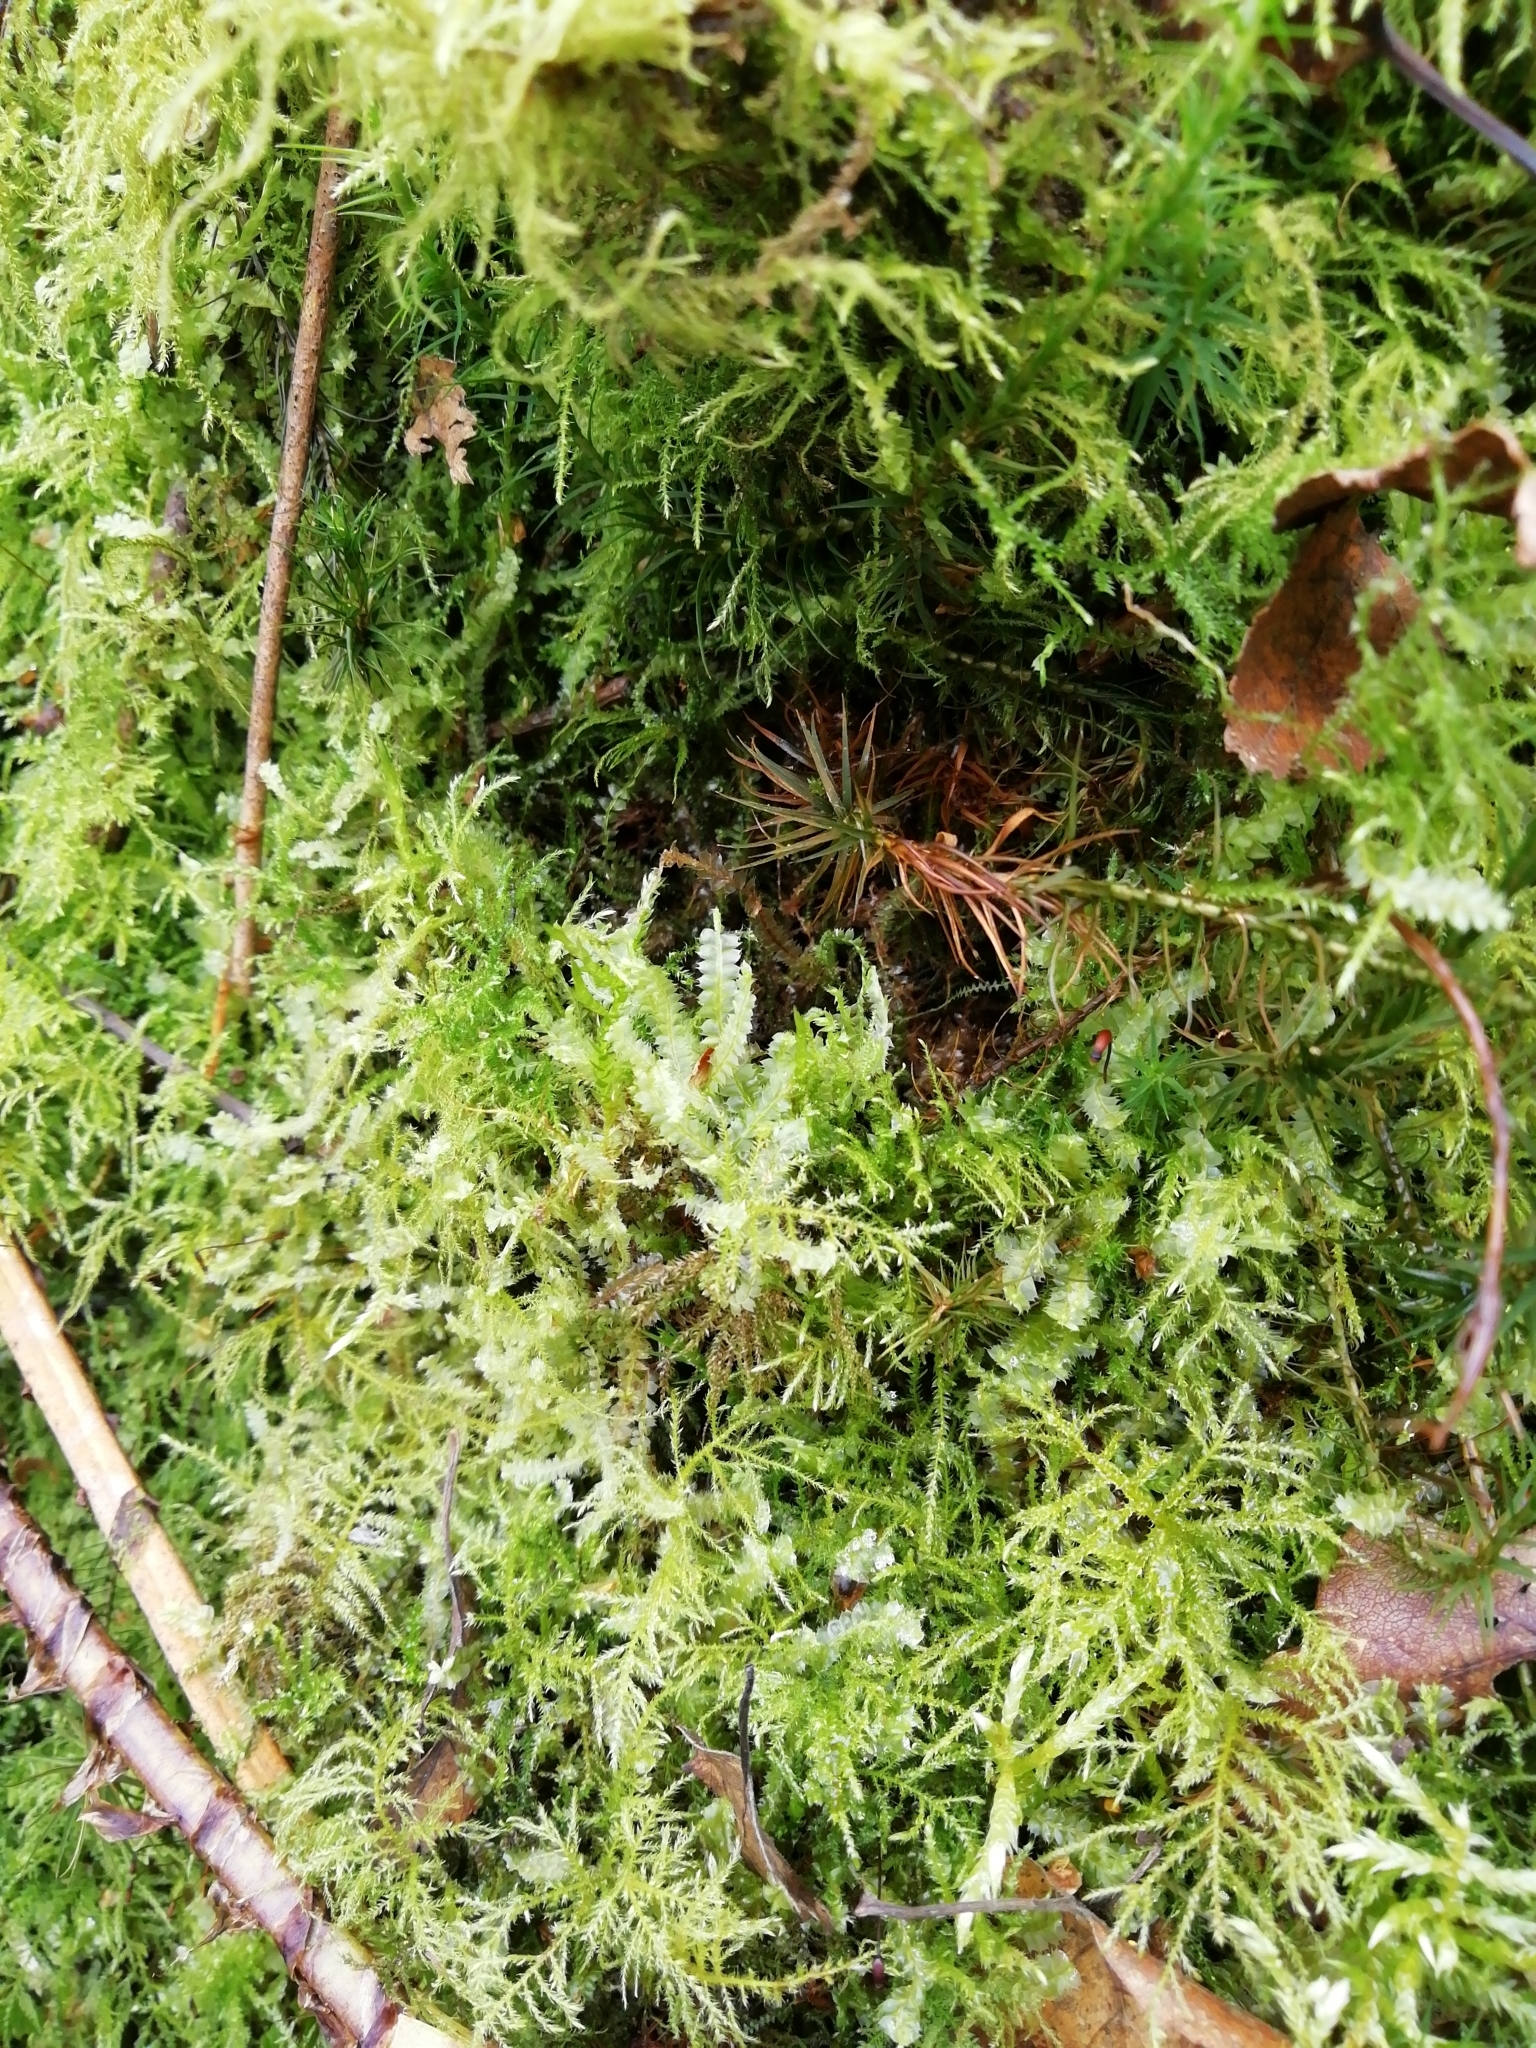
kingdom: Plantae
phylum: Marchantiophyta
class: Jungermanniopsida
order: Jungermanniales
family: Lophocoleaceae
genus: Lophocolea
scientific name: Lophocolea bidentata
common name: Bifid crestwort
